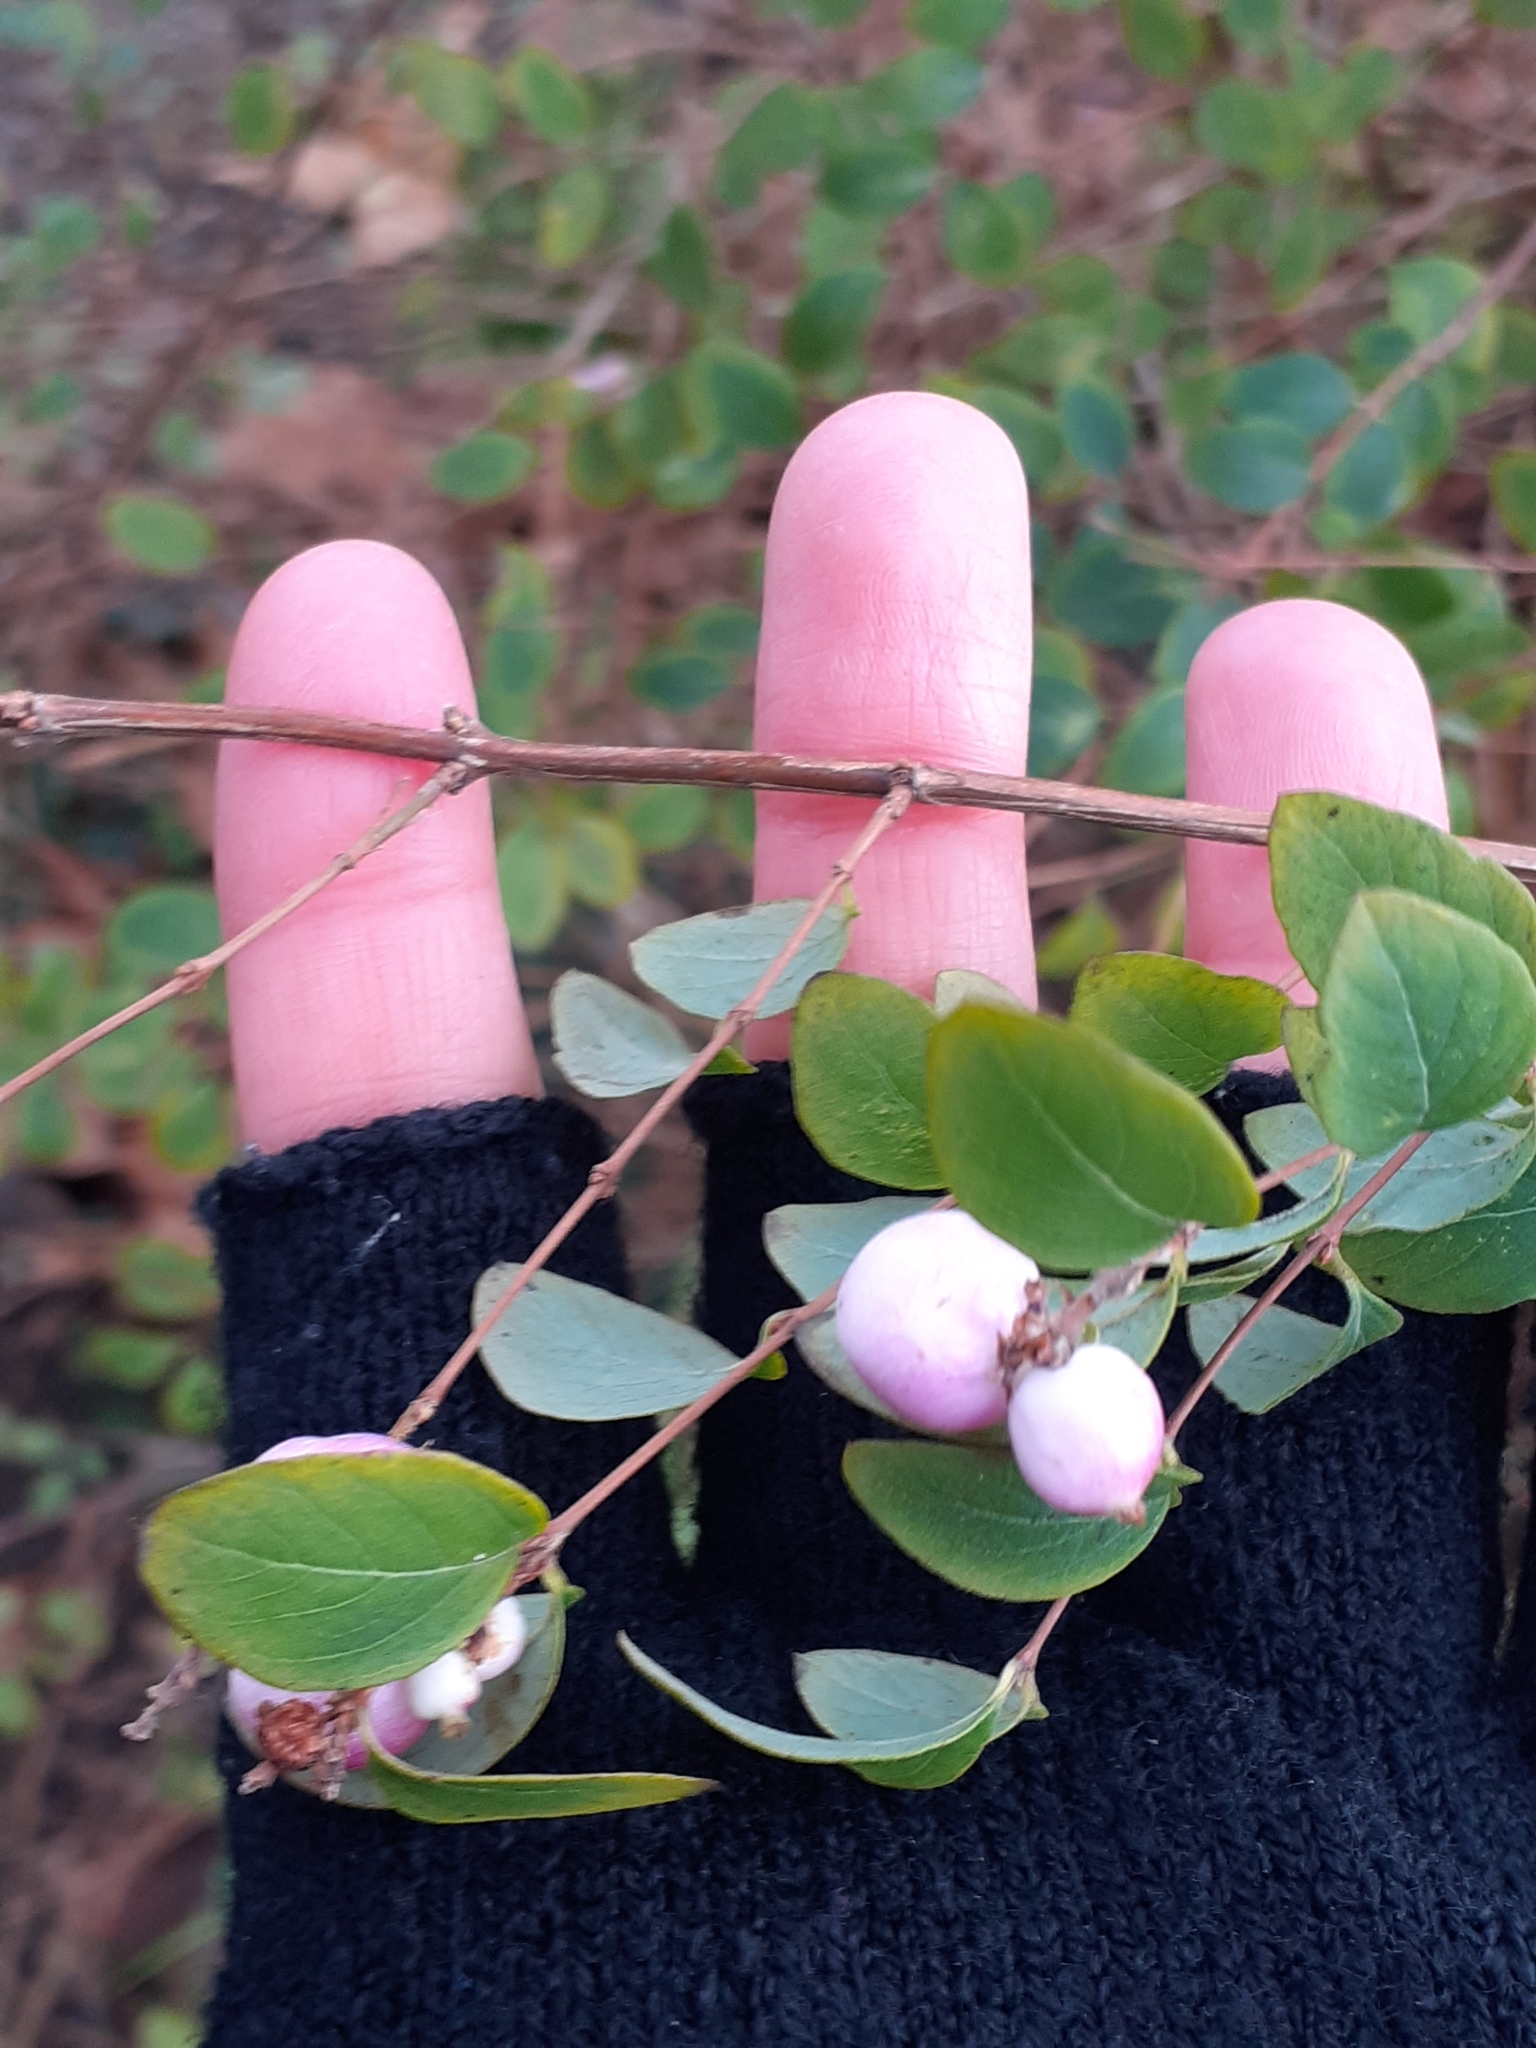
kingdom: Plantae
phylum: Tracheophyta
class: Magnoliopsida
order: Dipsacales
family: Caprifoliaceae
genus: Symphoricarpos
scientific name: Symphoricarpos chenaultii
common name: Hybrid coralberry
